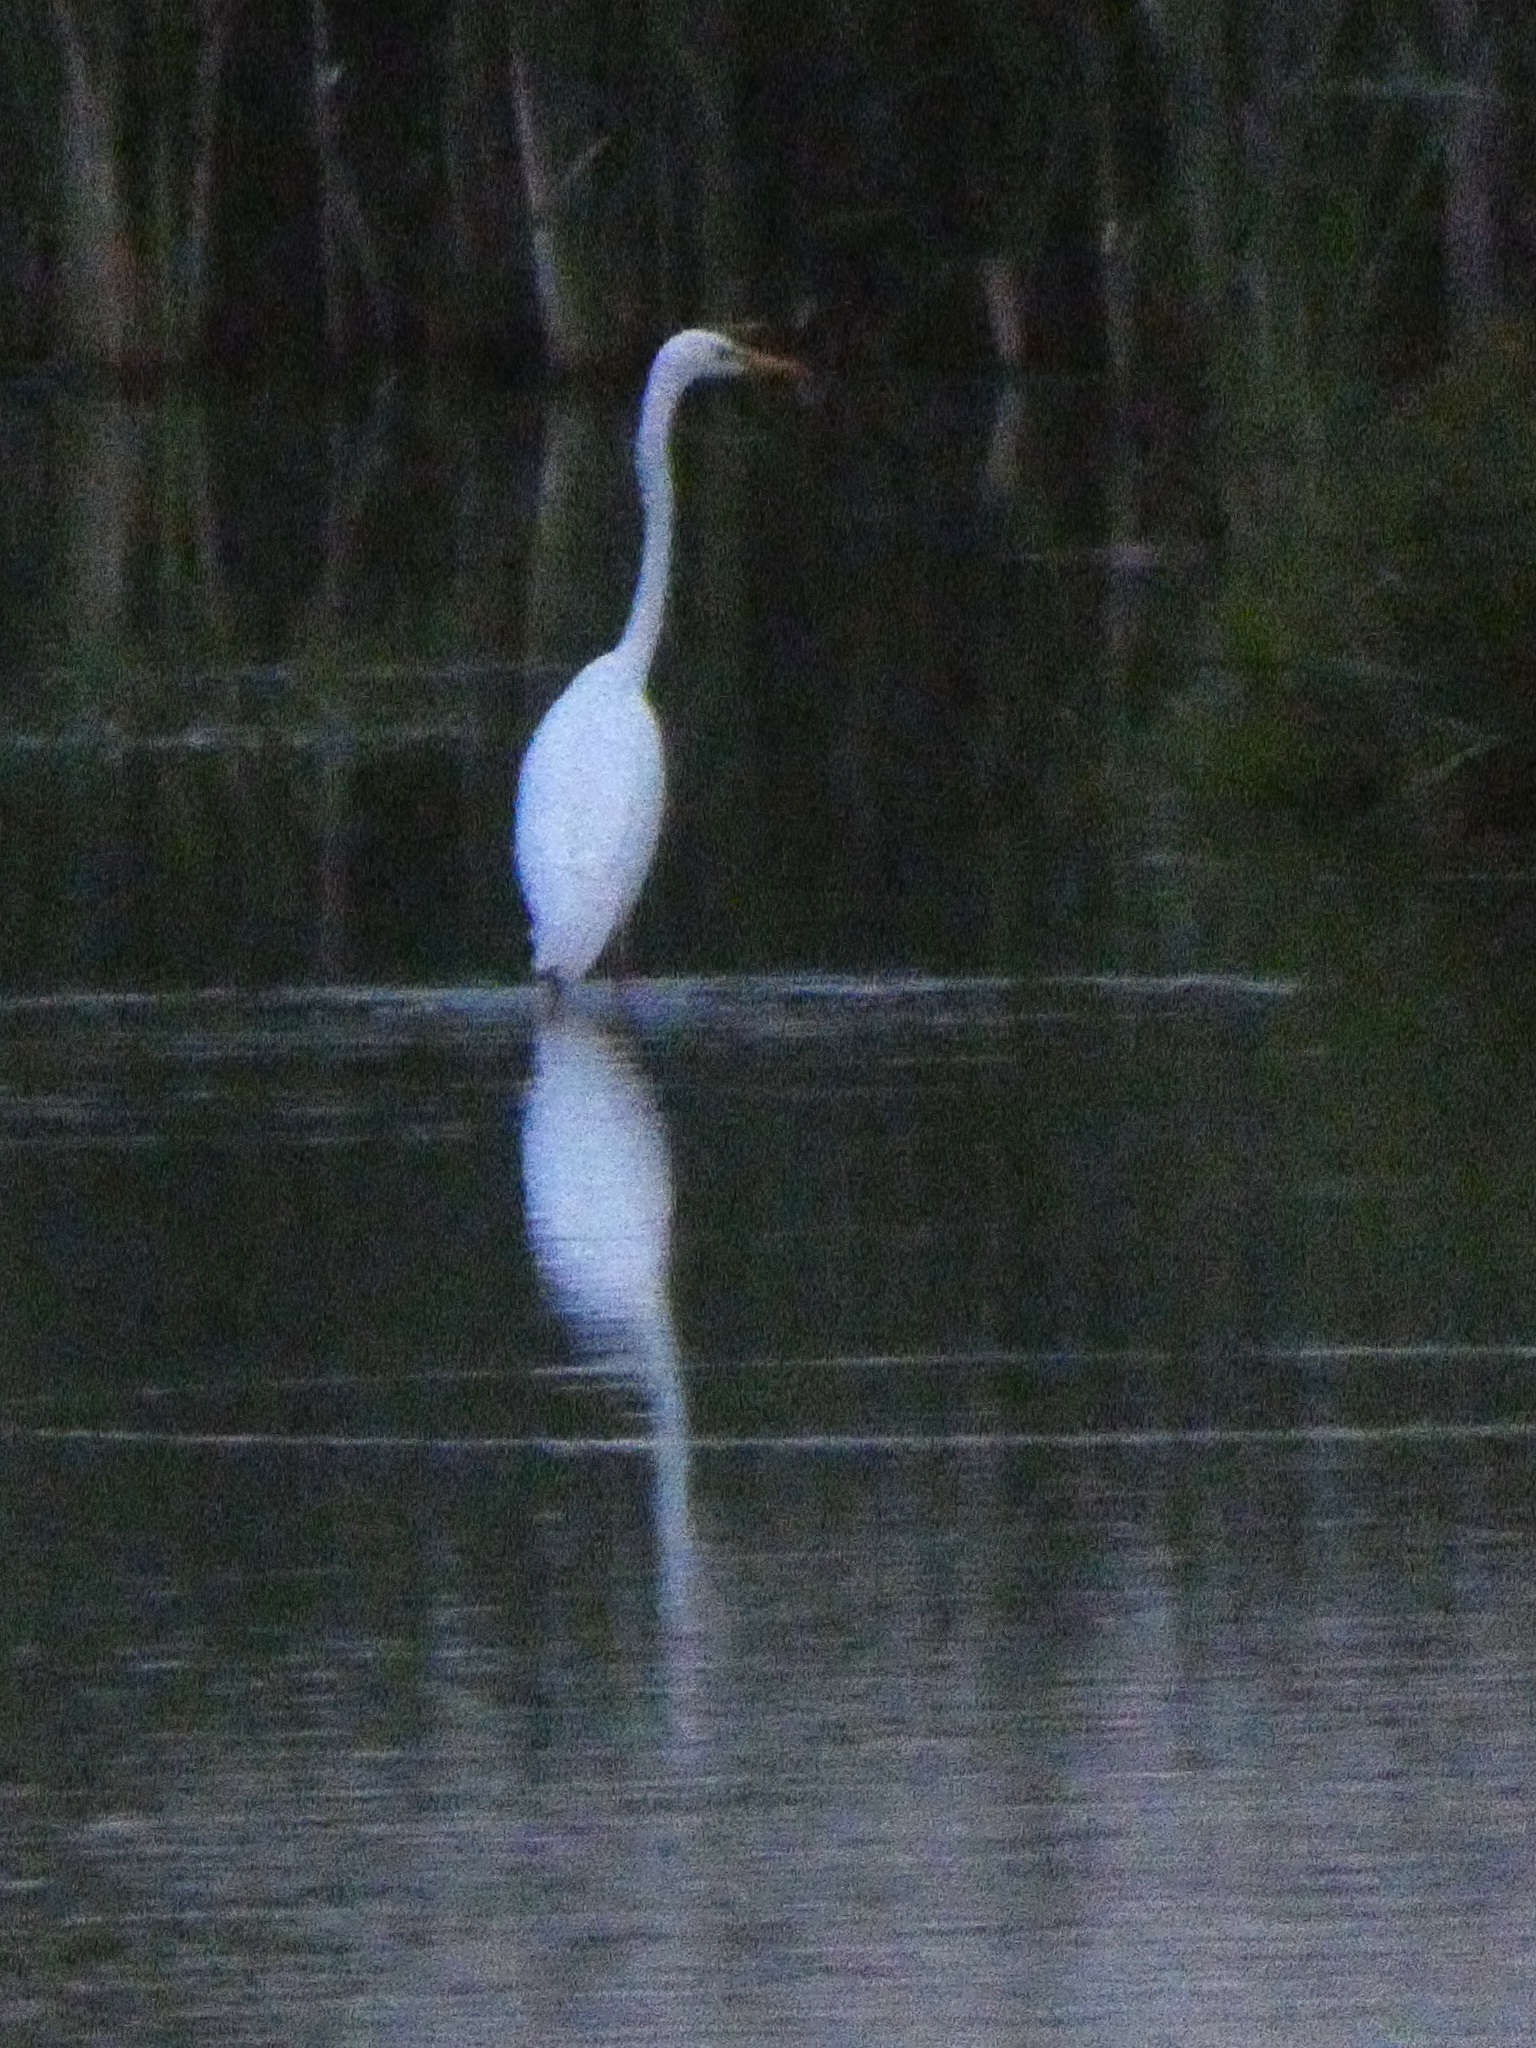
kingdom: Animalia
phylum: Chordata
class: Aves
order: Pelecaniformes
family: Ardeidae
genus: Ardea
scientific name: Ardea alba
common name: Great egret
